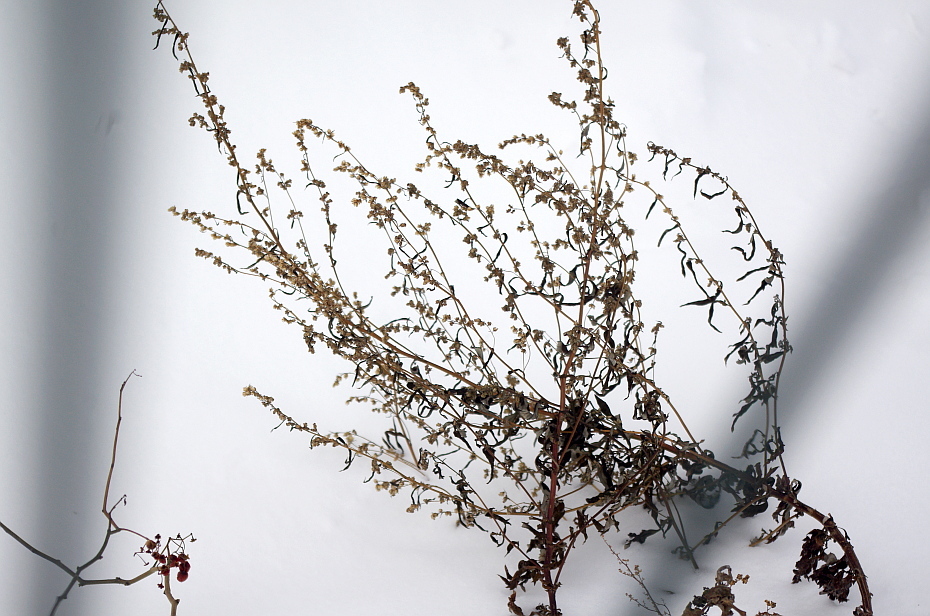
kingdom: Plantae
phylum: Tracheophyta
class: Magnoliopsida
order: Asterales
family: Asteraceae
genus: Artemisia
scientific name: Artemisia vulgaris
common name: Mugwort
